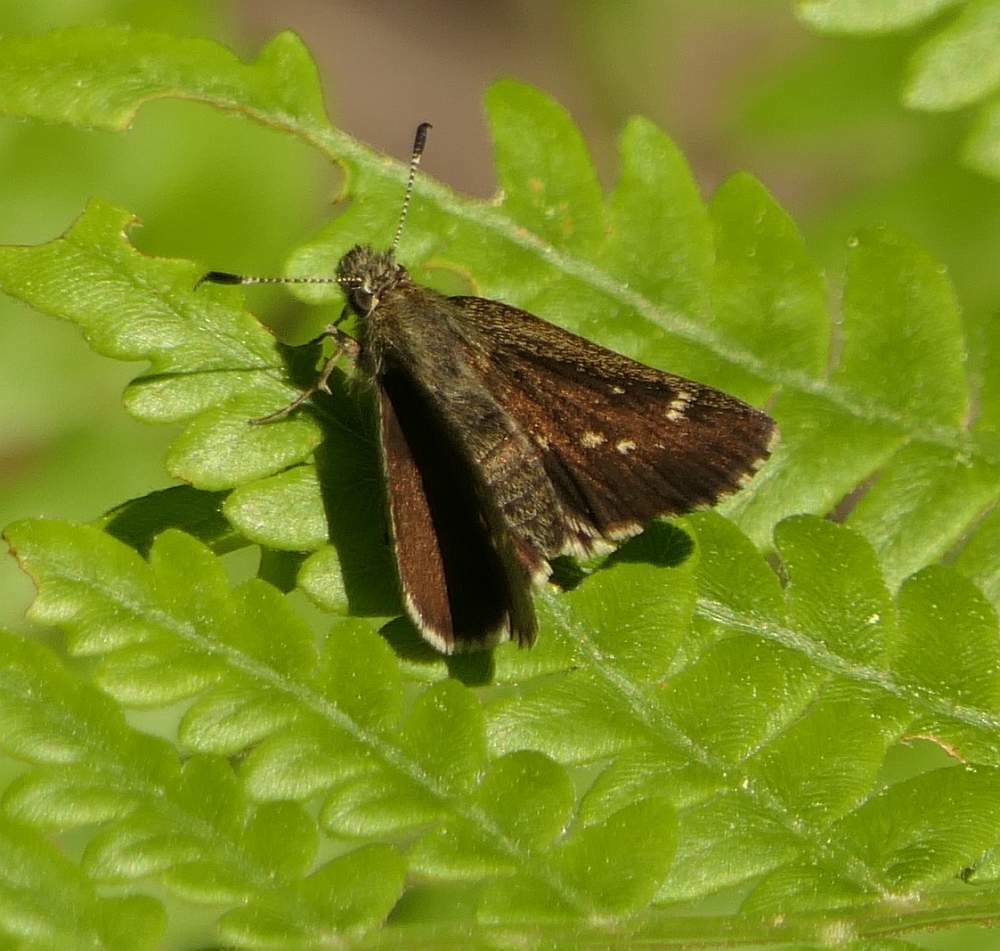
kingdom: Animalia
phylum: Arthropoda
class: Insecta
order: Lepidoptera
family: Hesperiidae
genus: Mastor
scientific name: Mastor hegon
